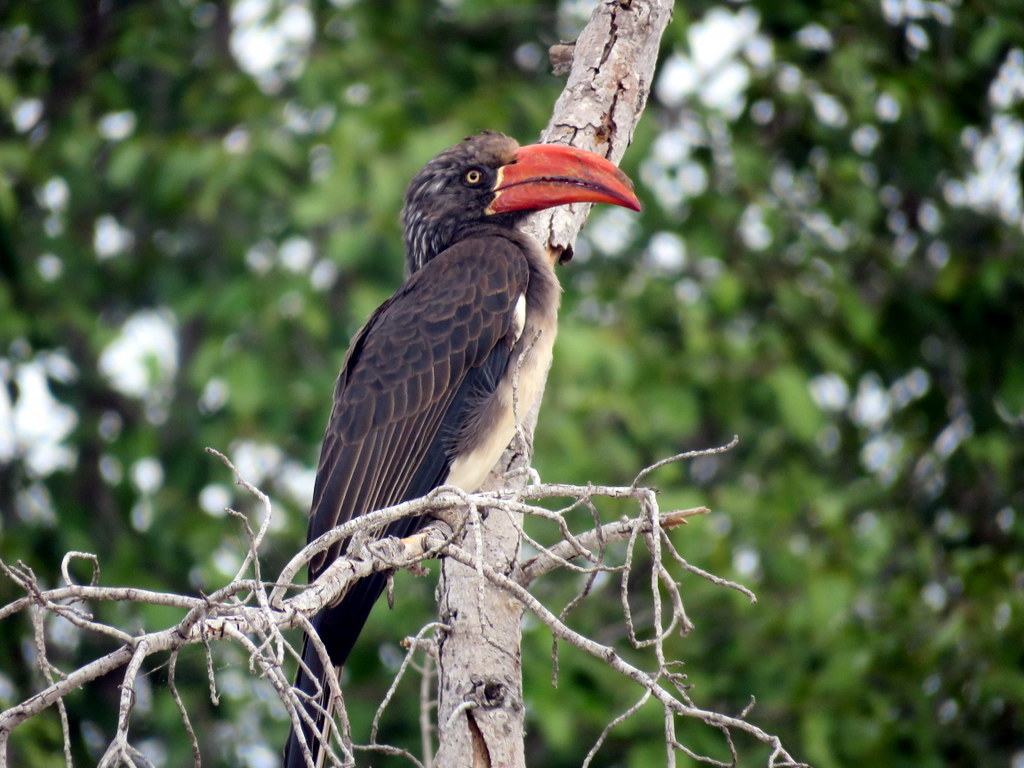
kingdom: Animalia
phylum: Chordata
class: Aves
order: Bucerotiformes
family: Bucerotidae
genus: Lophoceros
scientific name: Lophoceros alboterminatus
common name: Crowned hornbill
